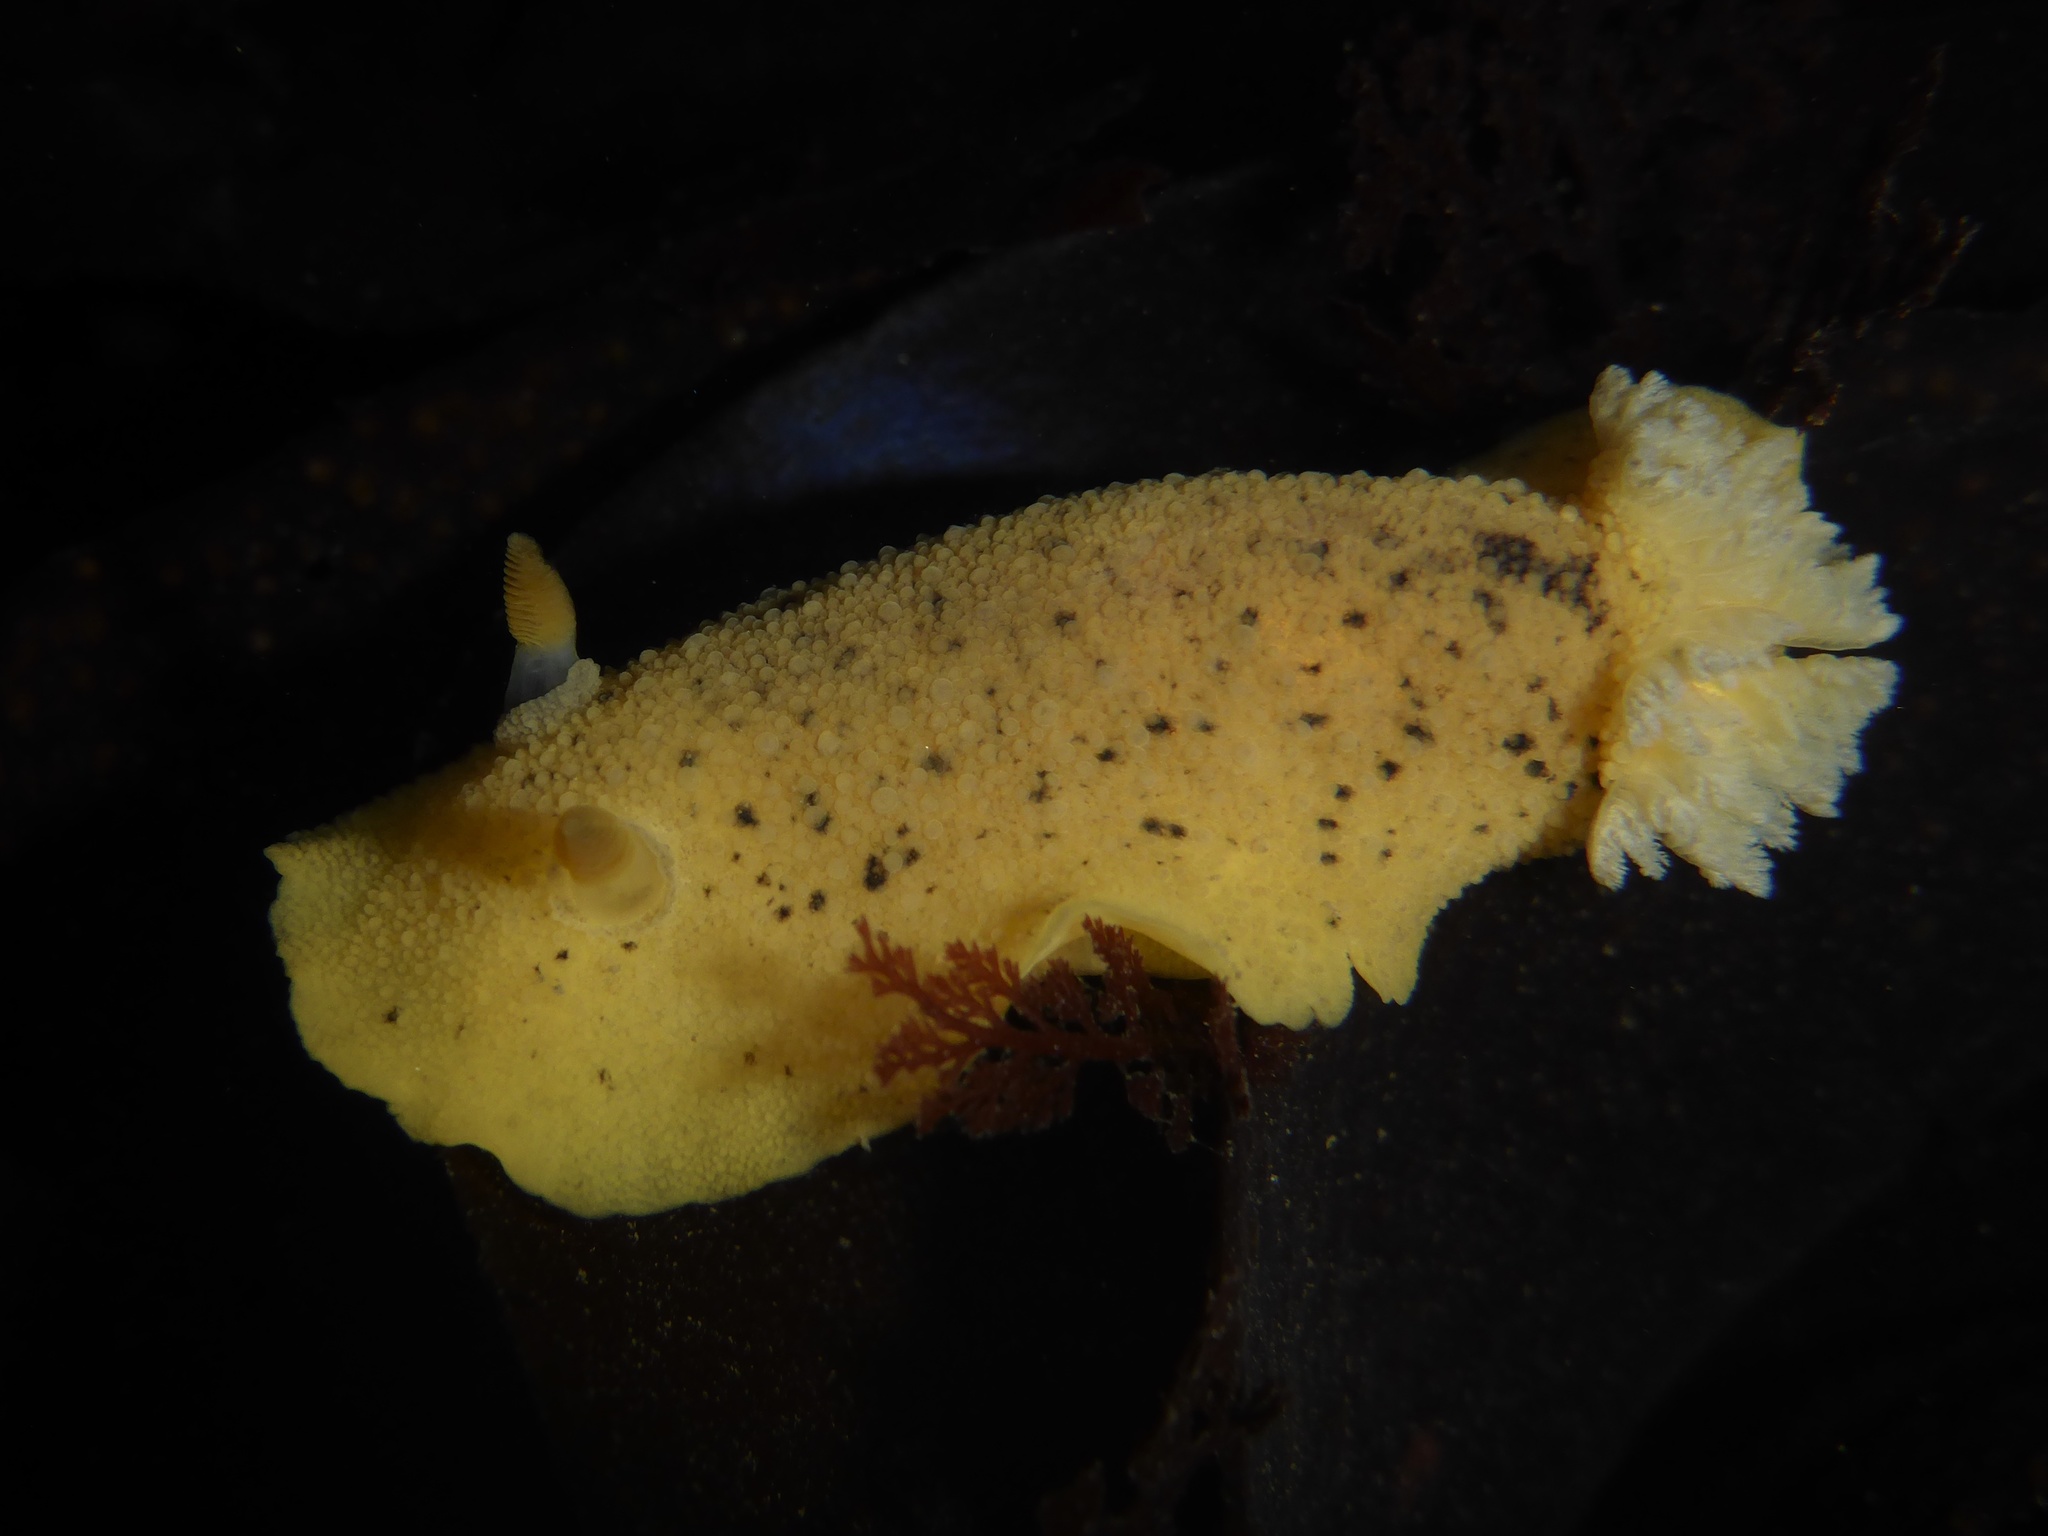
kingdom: Animalia
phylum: Mollusca
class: Gastropoda
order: Nudibranchia
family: Discodorididae
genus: Geitodoris
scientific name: Geitodoris heathi
